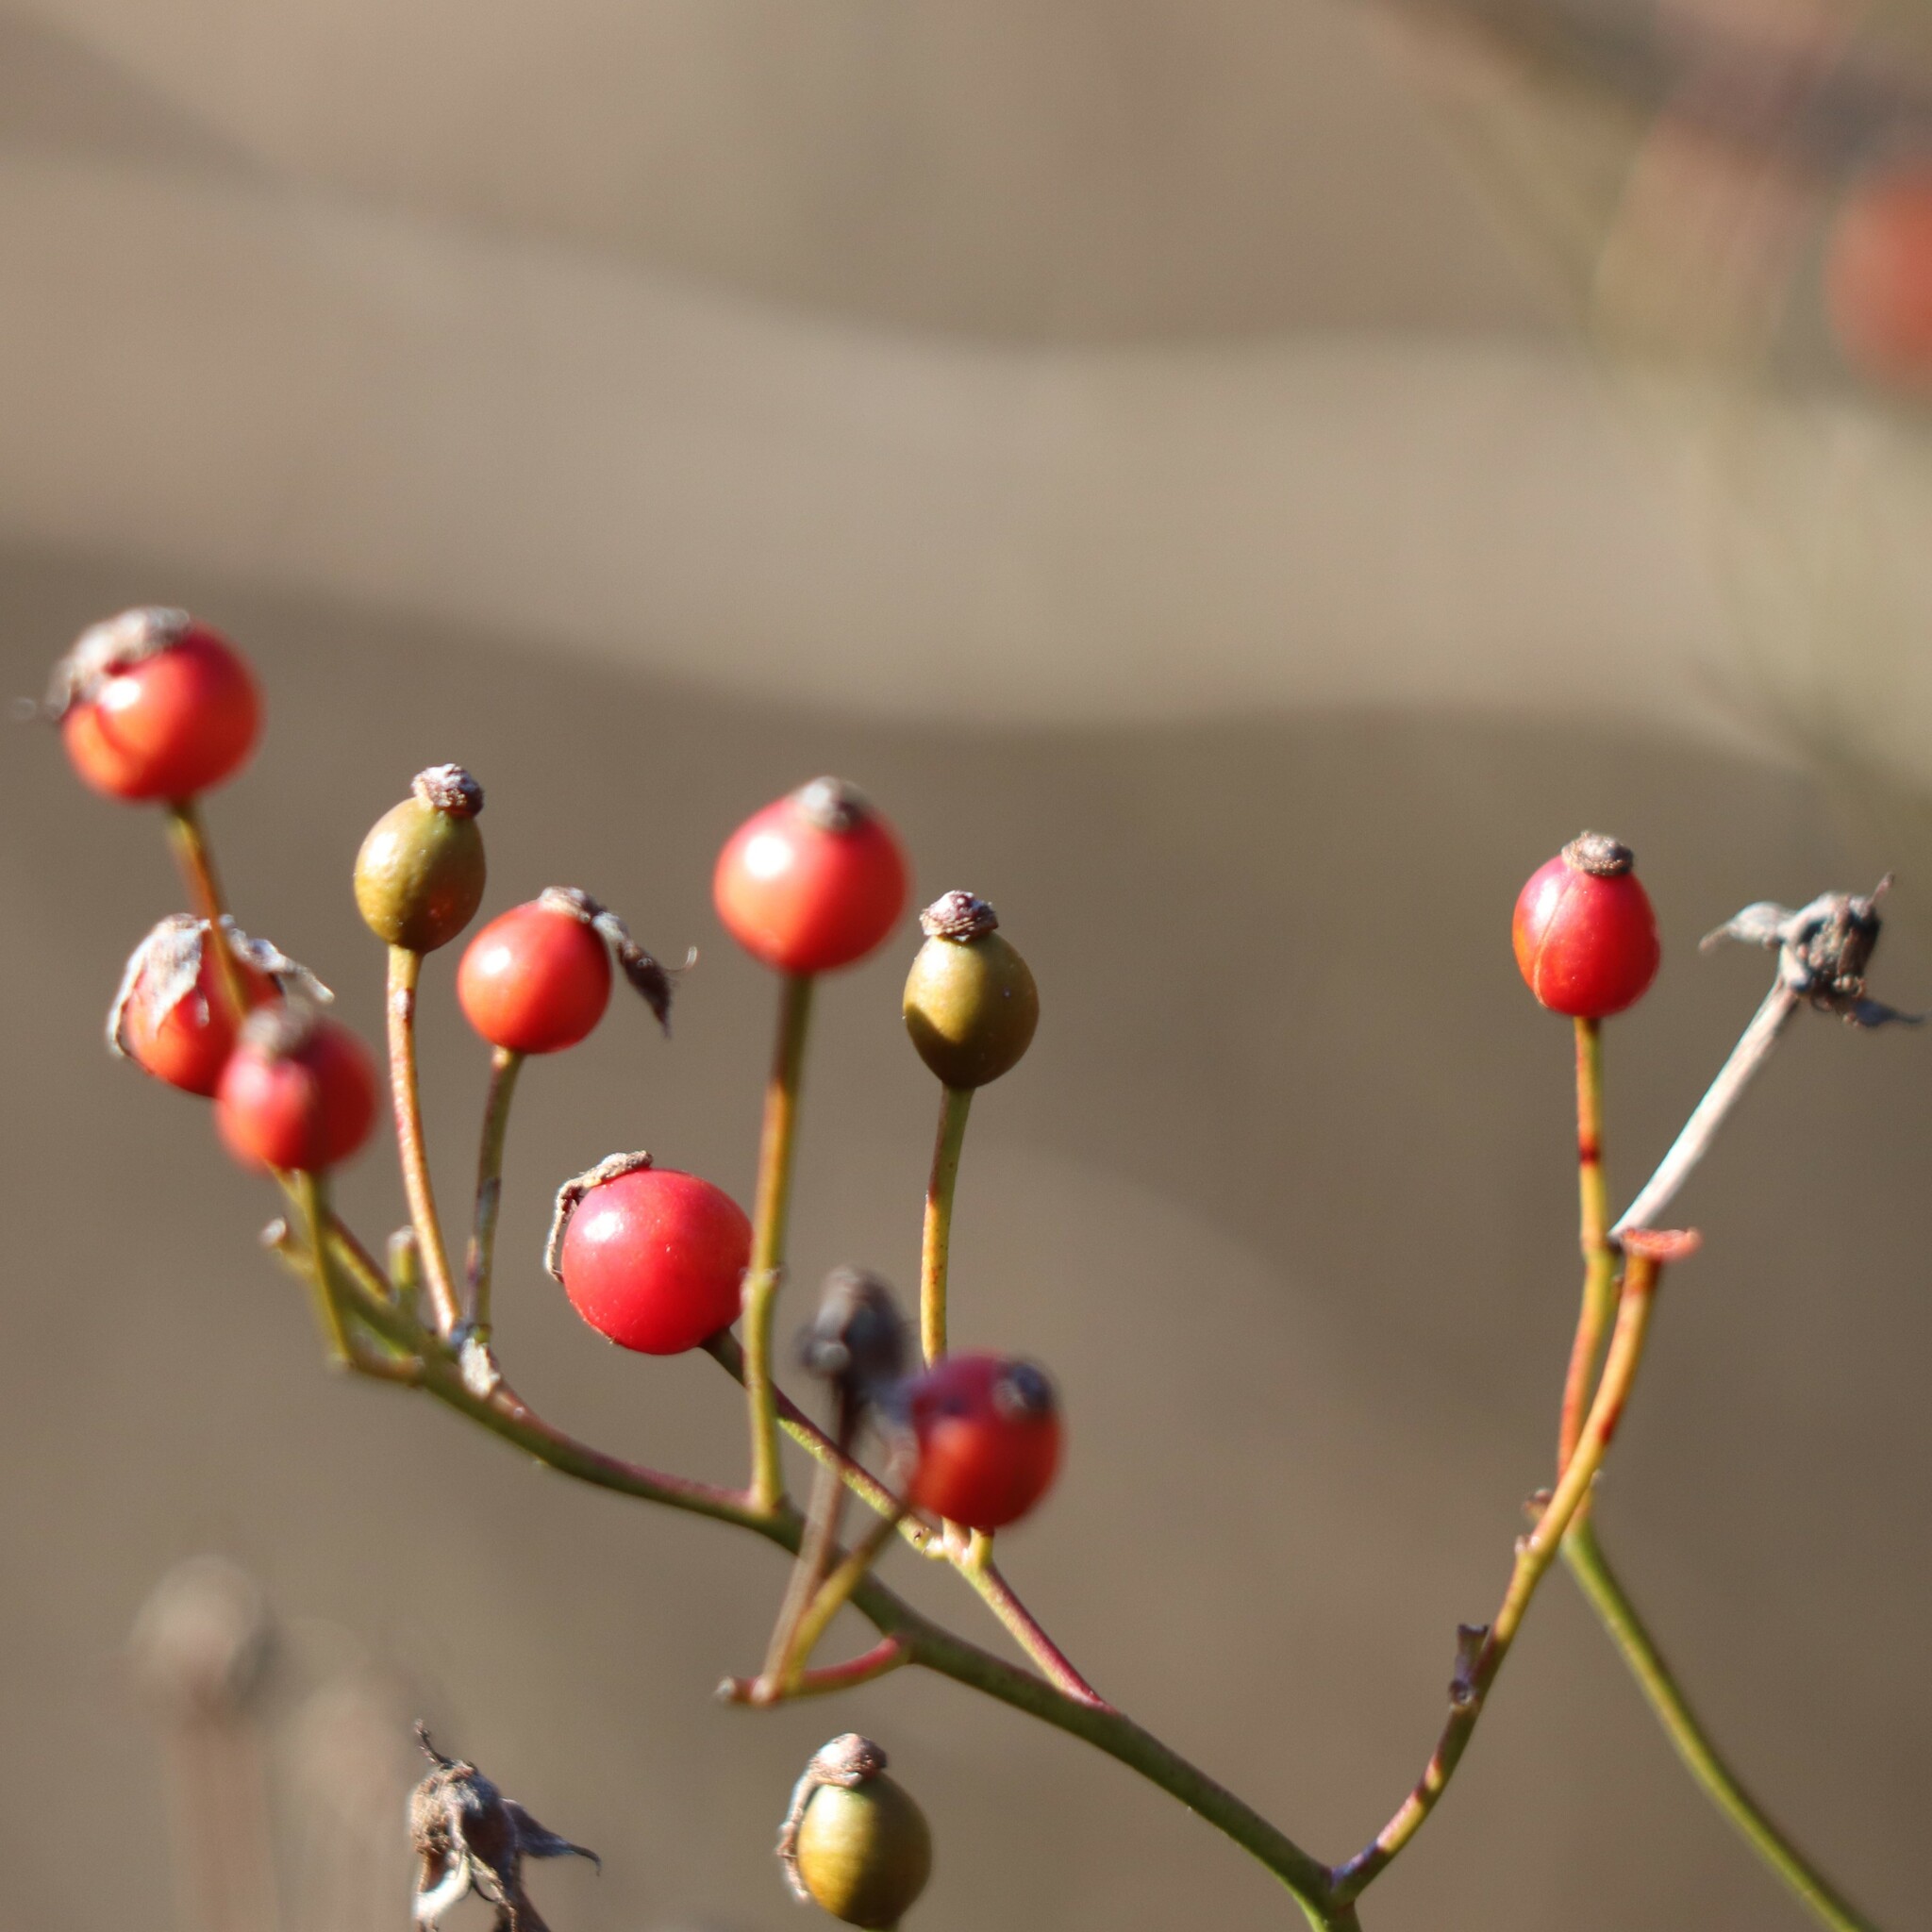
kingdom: Plantae
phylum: Tracheophyta
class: Magnoliopsida
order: Rosales
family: Rosaceae
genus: Rosa
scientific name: Rosa multiflora
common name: Multiflora rose
